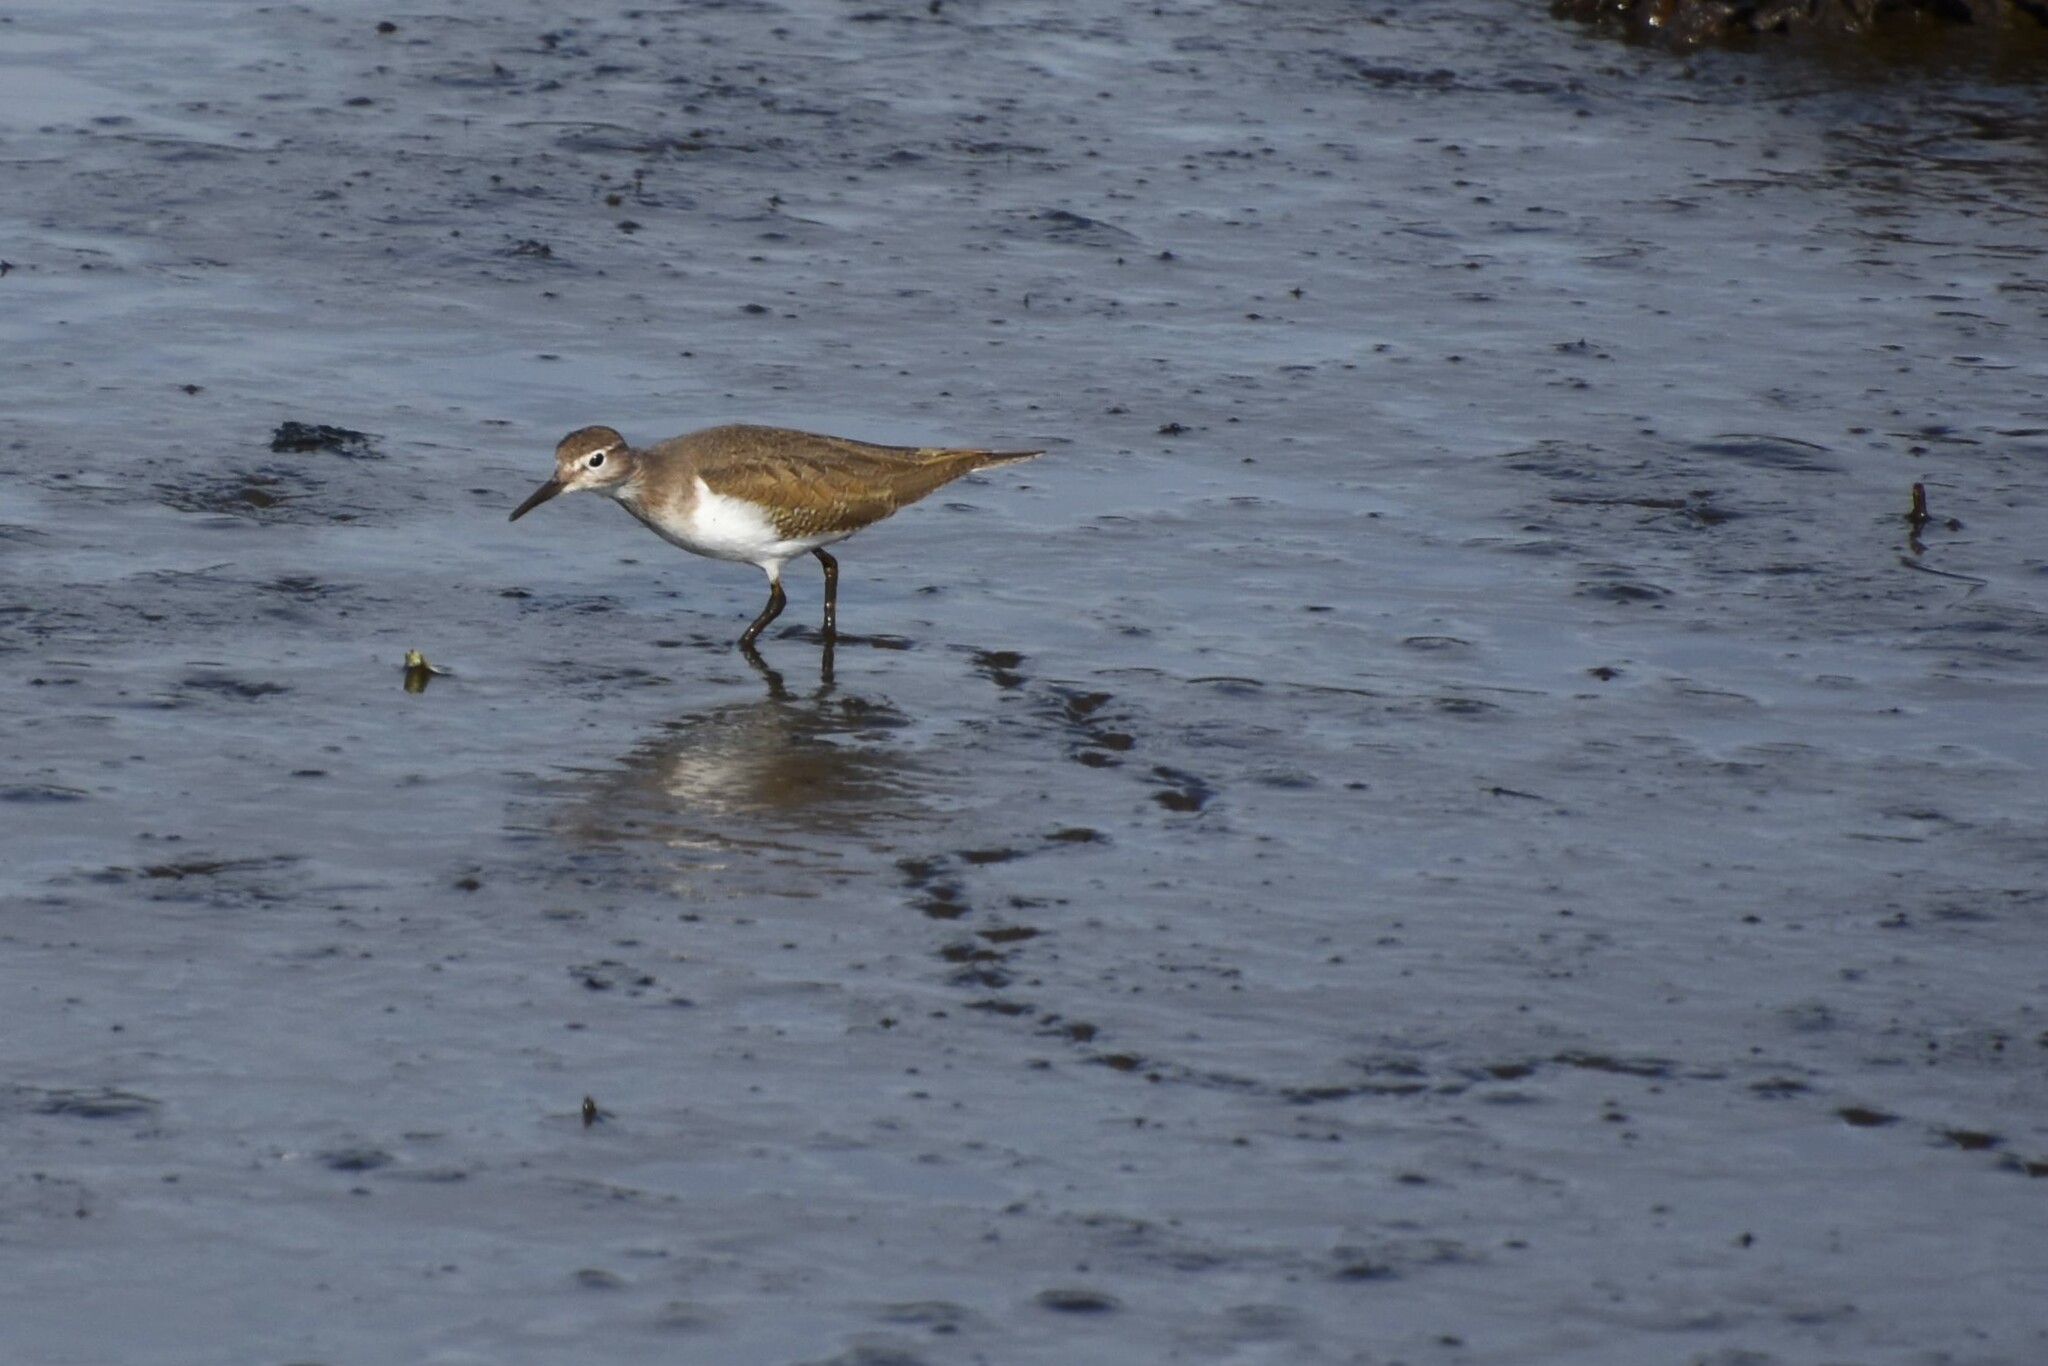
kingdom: Animalia
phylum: Chordata
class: Aves
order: Charadriiformes
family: Scolopacidae
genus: Actitis
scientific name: Actitis hypoleucos
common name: Common sandpiper
